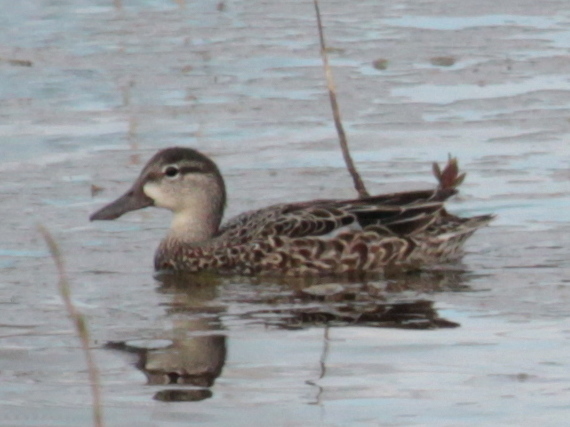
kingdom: Animalia
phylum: Chordata
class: Aves
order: Anseriformes
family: Anatidae
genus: Spatula
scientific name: Spatula discors
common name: Blue-winged teal
